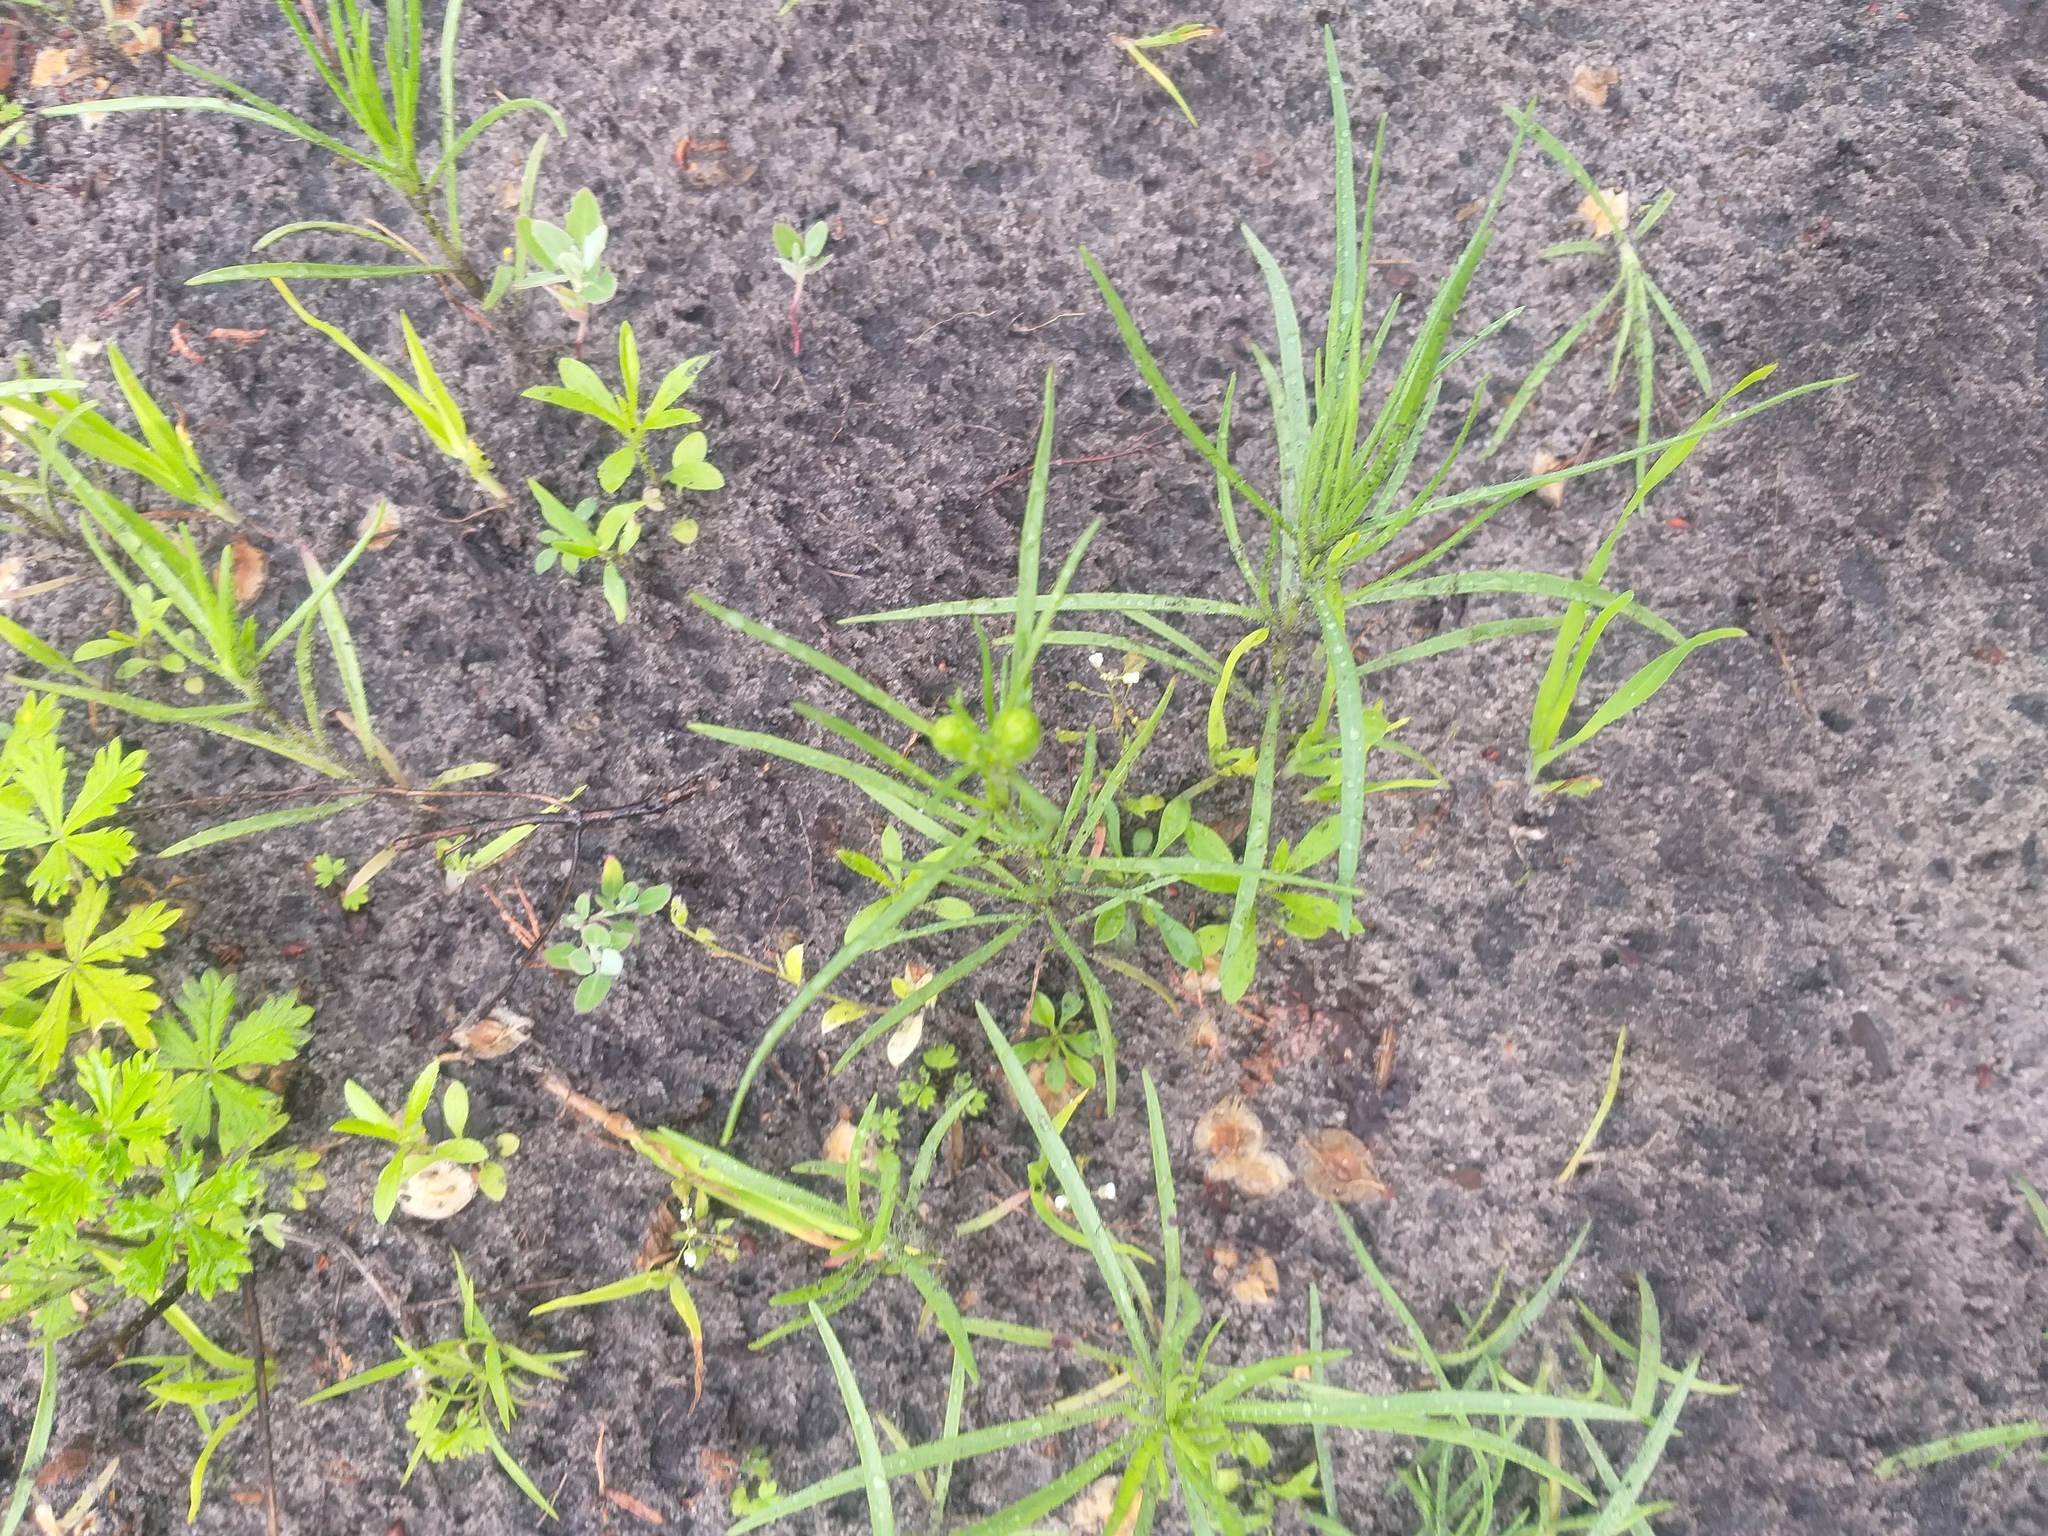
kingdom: Plantae
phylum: Tracheophyta
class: Magnoliopsida
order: Lamiales
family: Plantaginaceae
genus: Plantago
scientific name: Plantago arenaria
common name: Branched plantain
